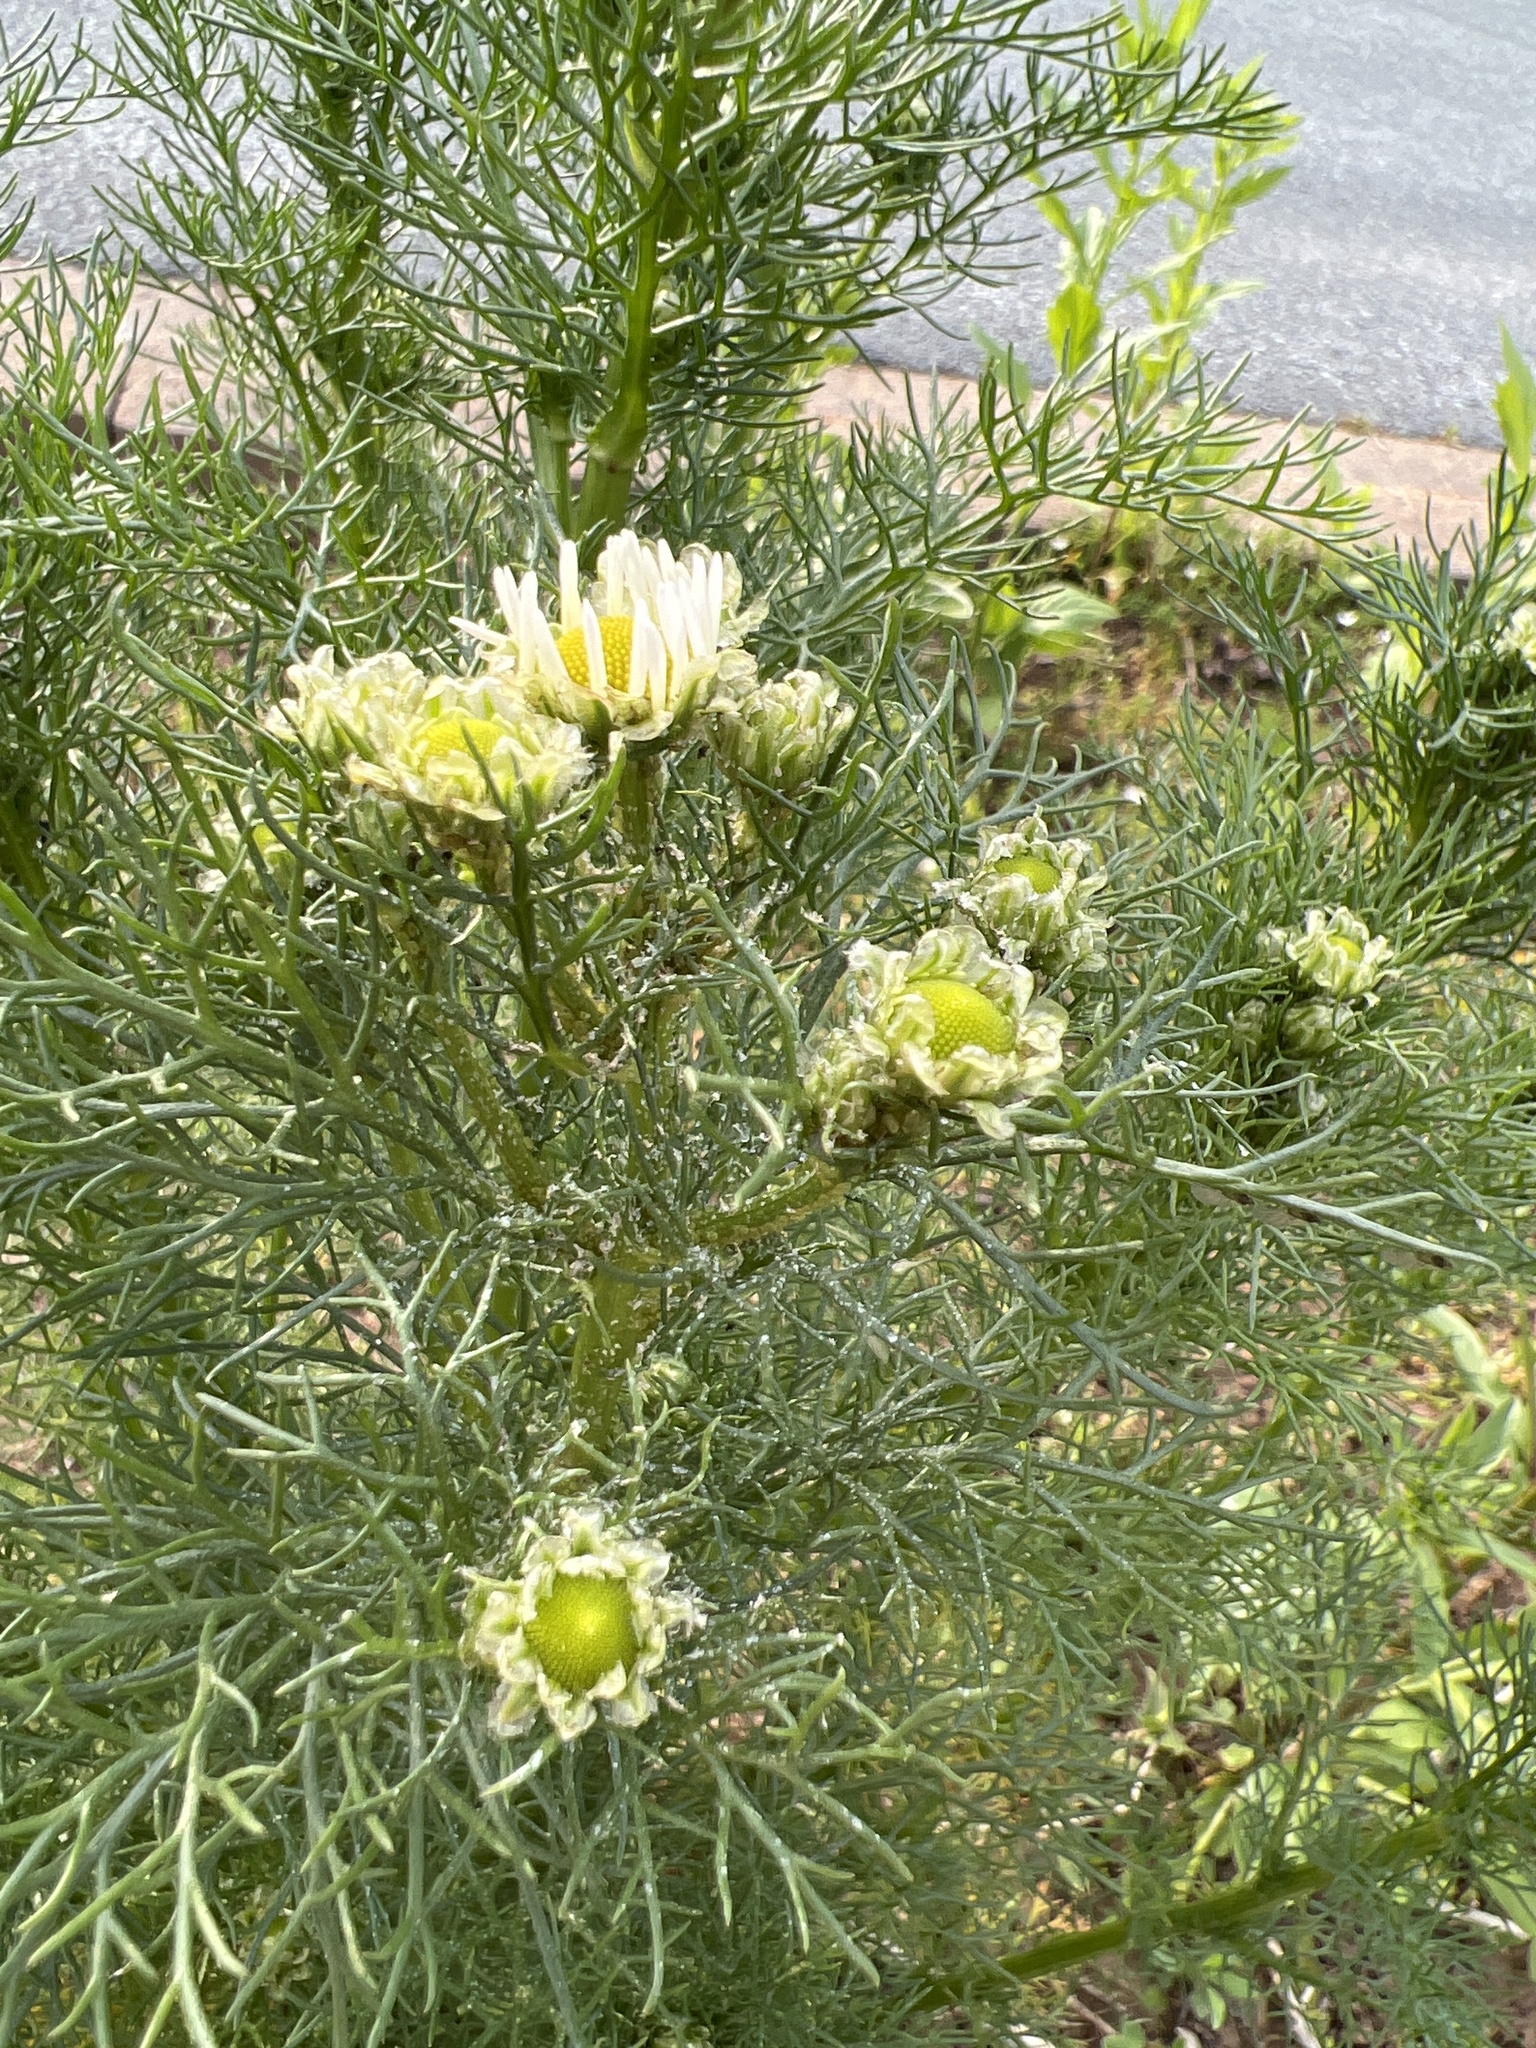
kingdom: Plantae
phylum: Tracheophyta
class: Magnoliopsida
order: Asterales
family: Asteraceae
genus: Tripleurospermum
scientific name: Tripleurospermum inodorum
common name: Scentless mayweed
